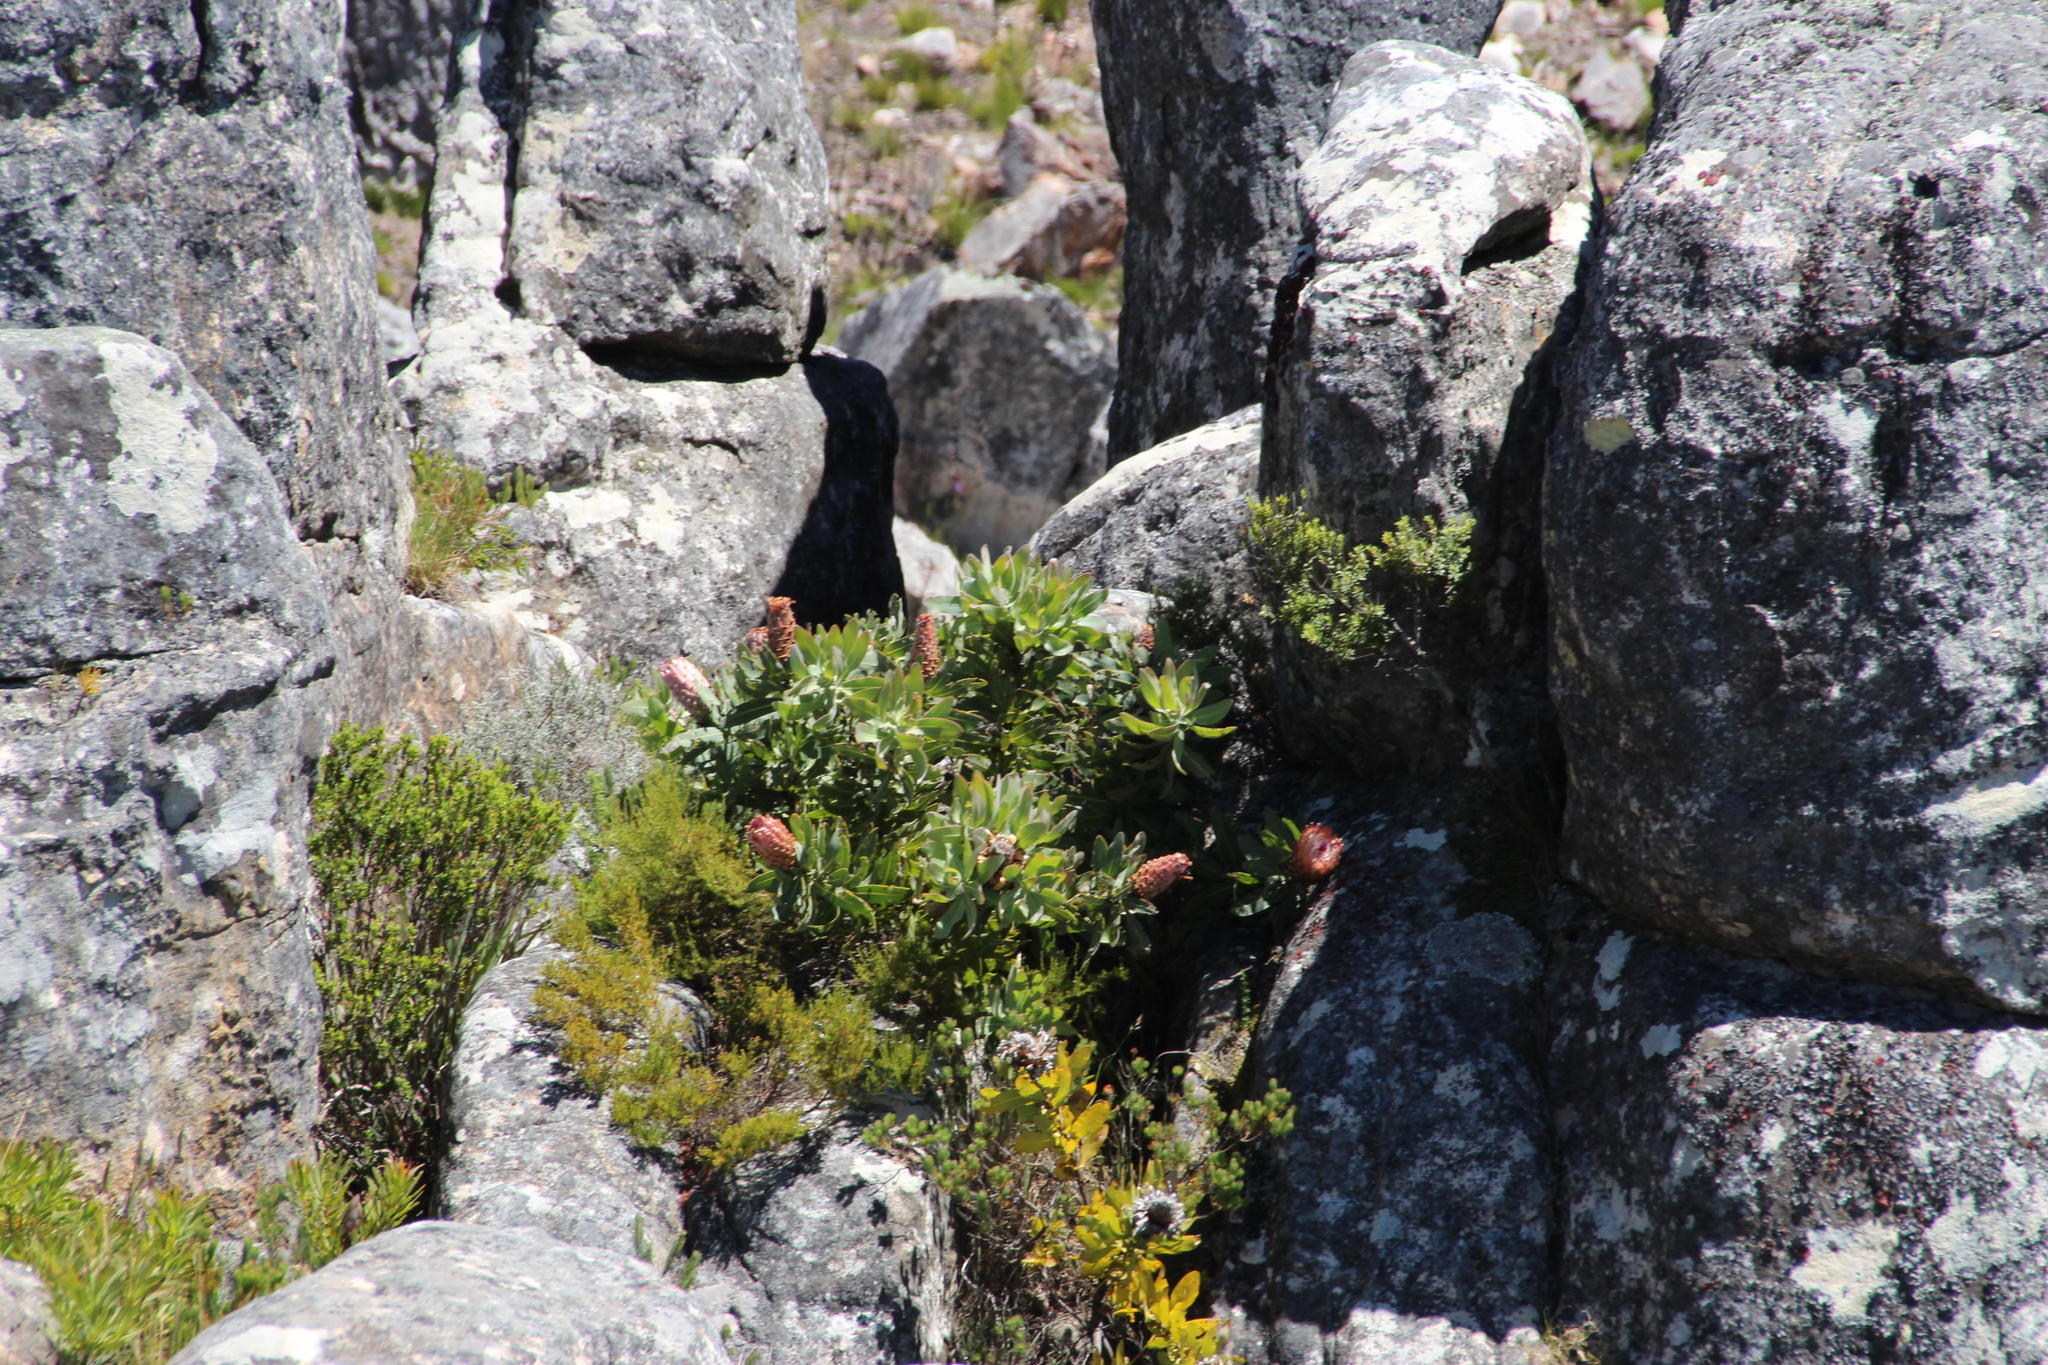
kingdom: Plantae
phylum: Tracheophyta
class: Magnoliopsida
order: Proteales
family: Proteaceae
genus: Protea
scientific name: Protea magnifica
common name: Bearded sugarbush
